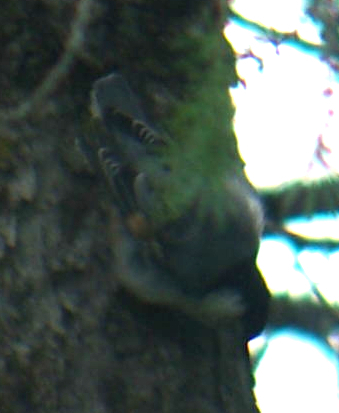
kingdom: Animalia
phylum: Chordata
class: Aves
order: Passeriformes
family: Sittidae
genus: Sitta
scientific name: Sitta carolinensis
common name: White-breasted nuthatch
